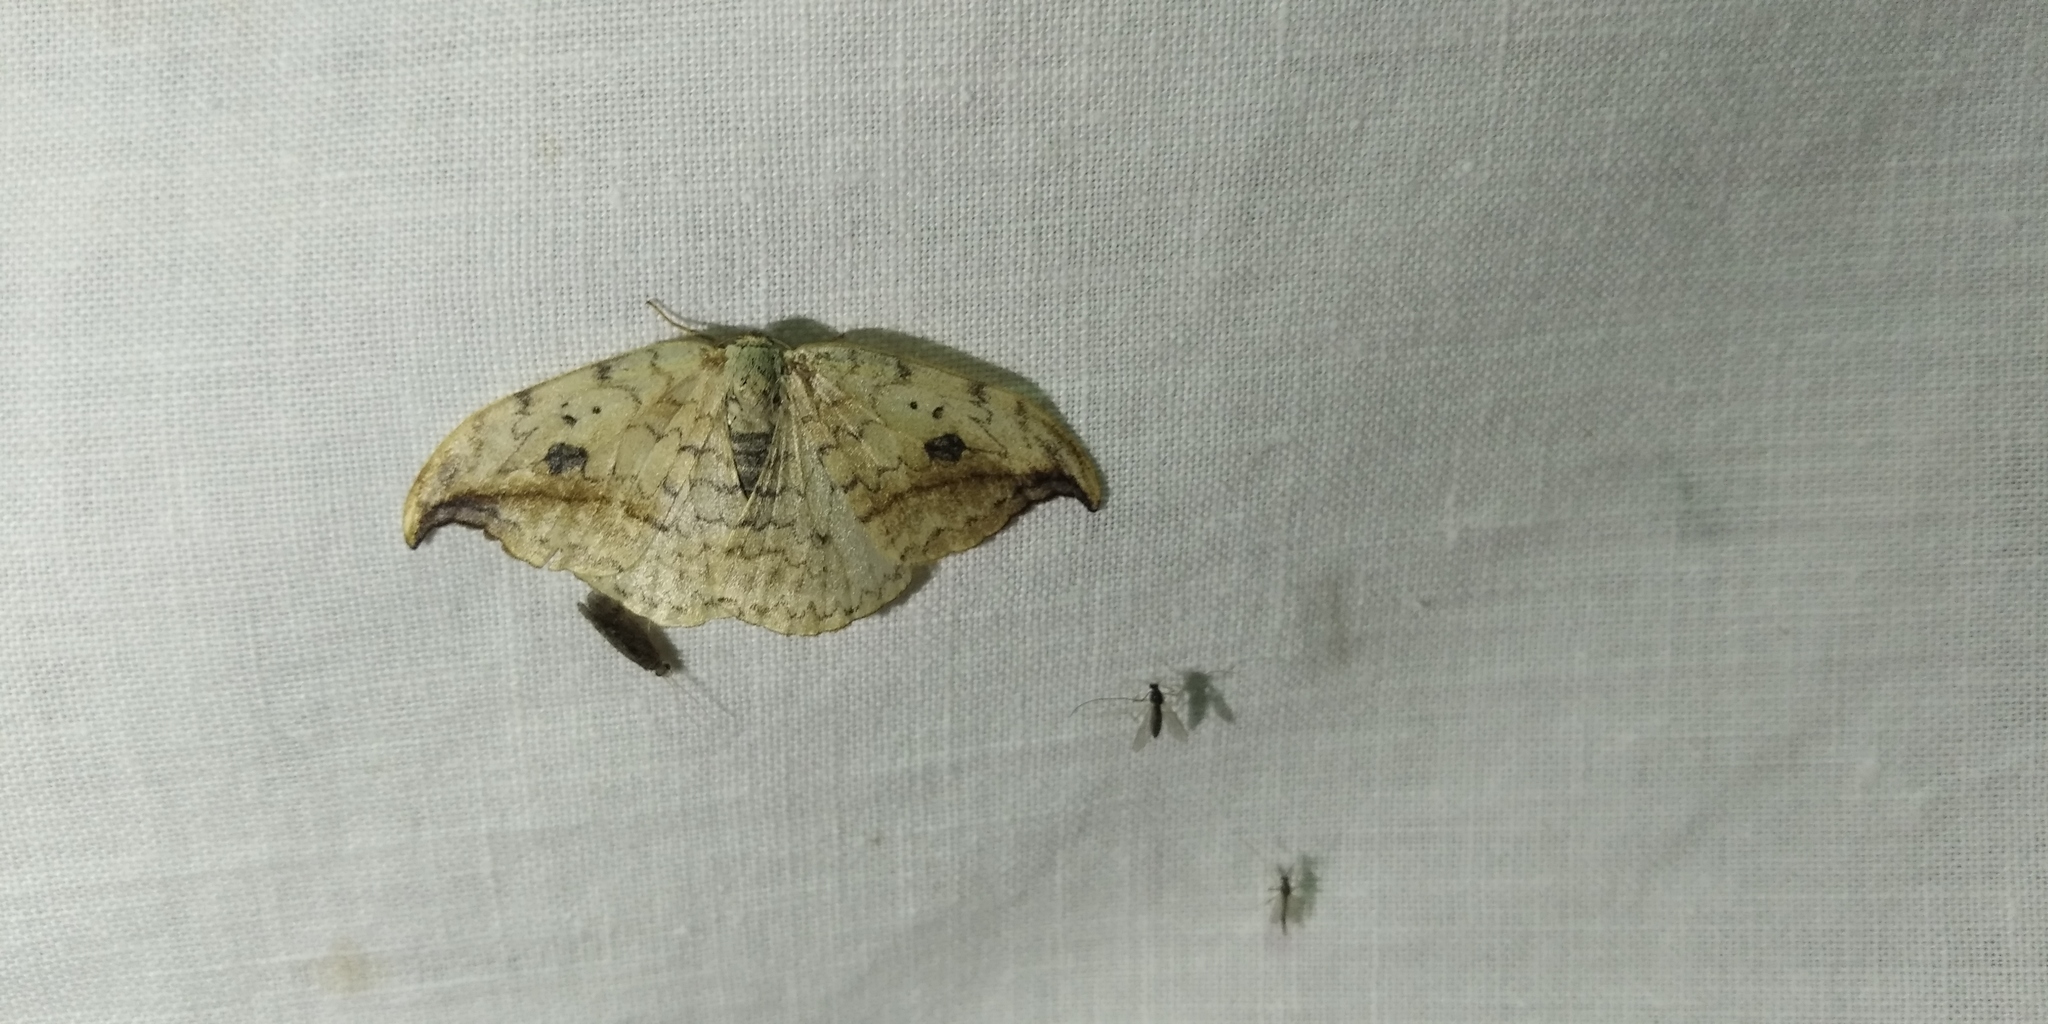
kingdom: Animalia
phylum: Arthropoda
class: Insecta
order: Lepidoptera
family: Drepanidae
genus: Drepana
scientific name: Drepana falcataria
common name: Pebble hook-tip
